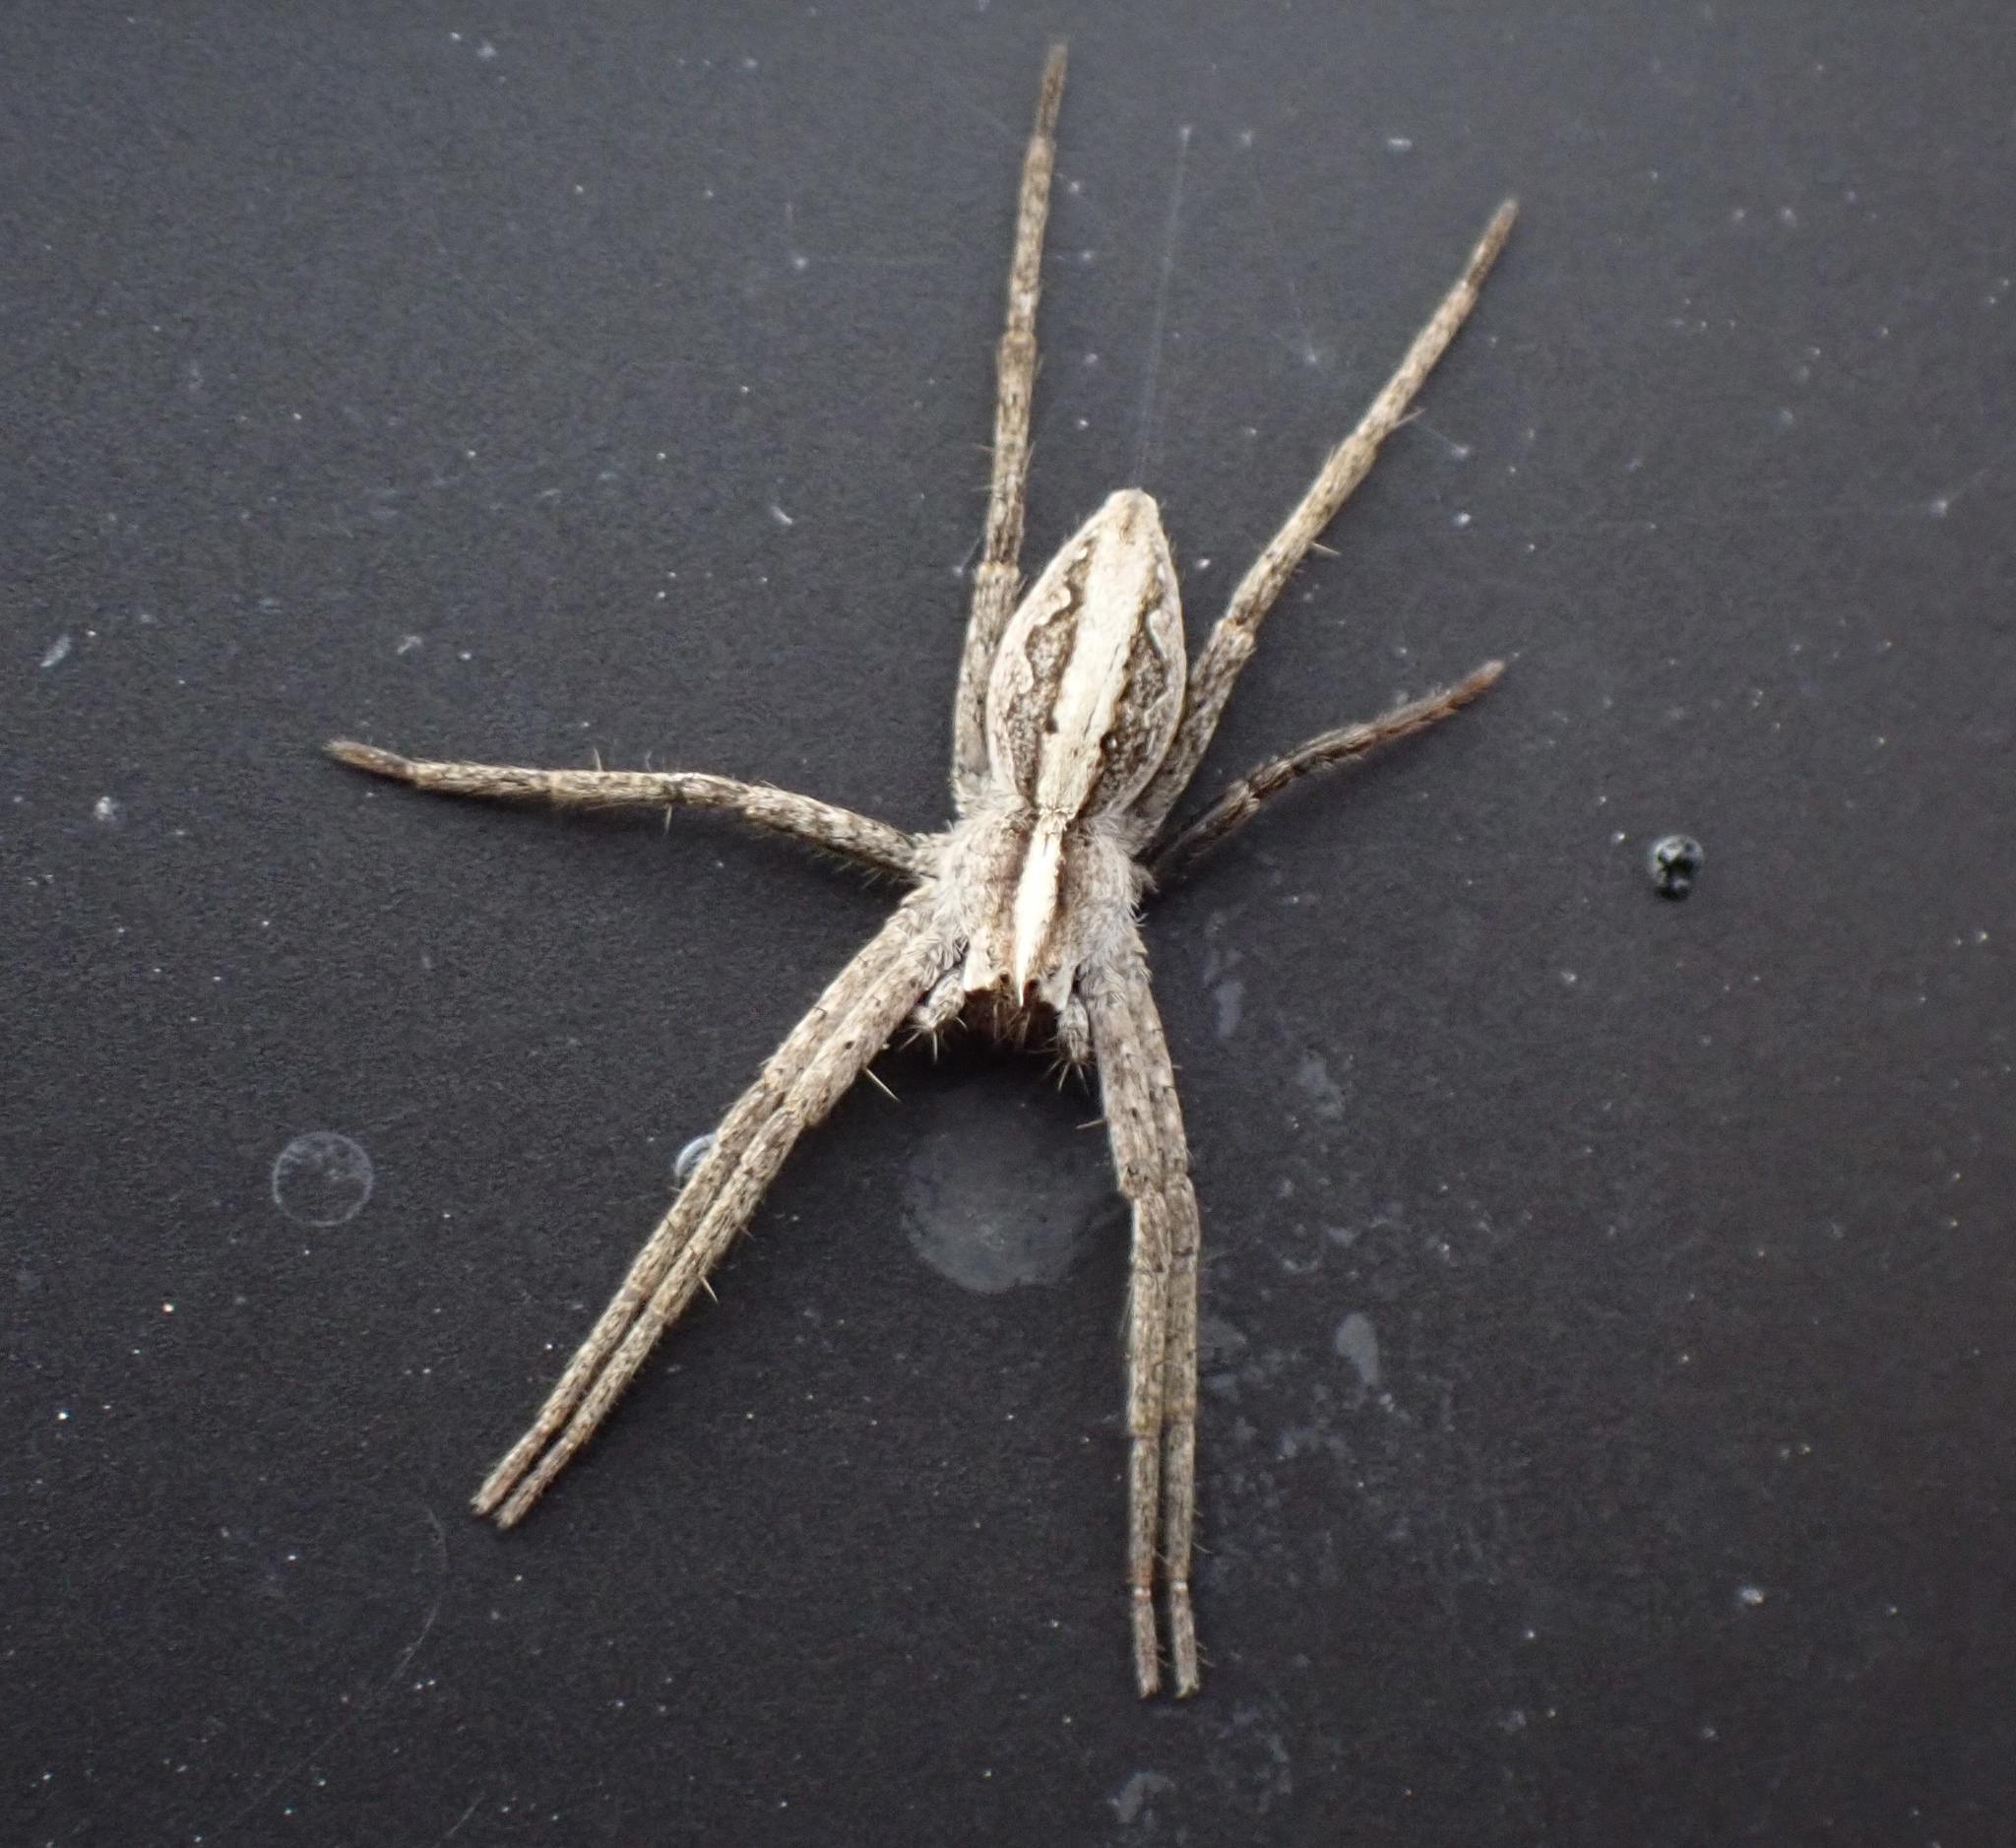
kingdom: Animalia
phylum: Arthropoda
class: Arachnida
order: Araneae
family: Pisauridae
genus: Pisaura
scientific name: Pisaura mirabilis
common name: Tent spider
